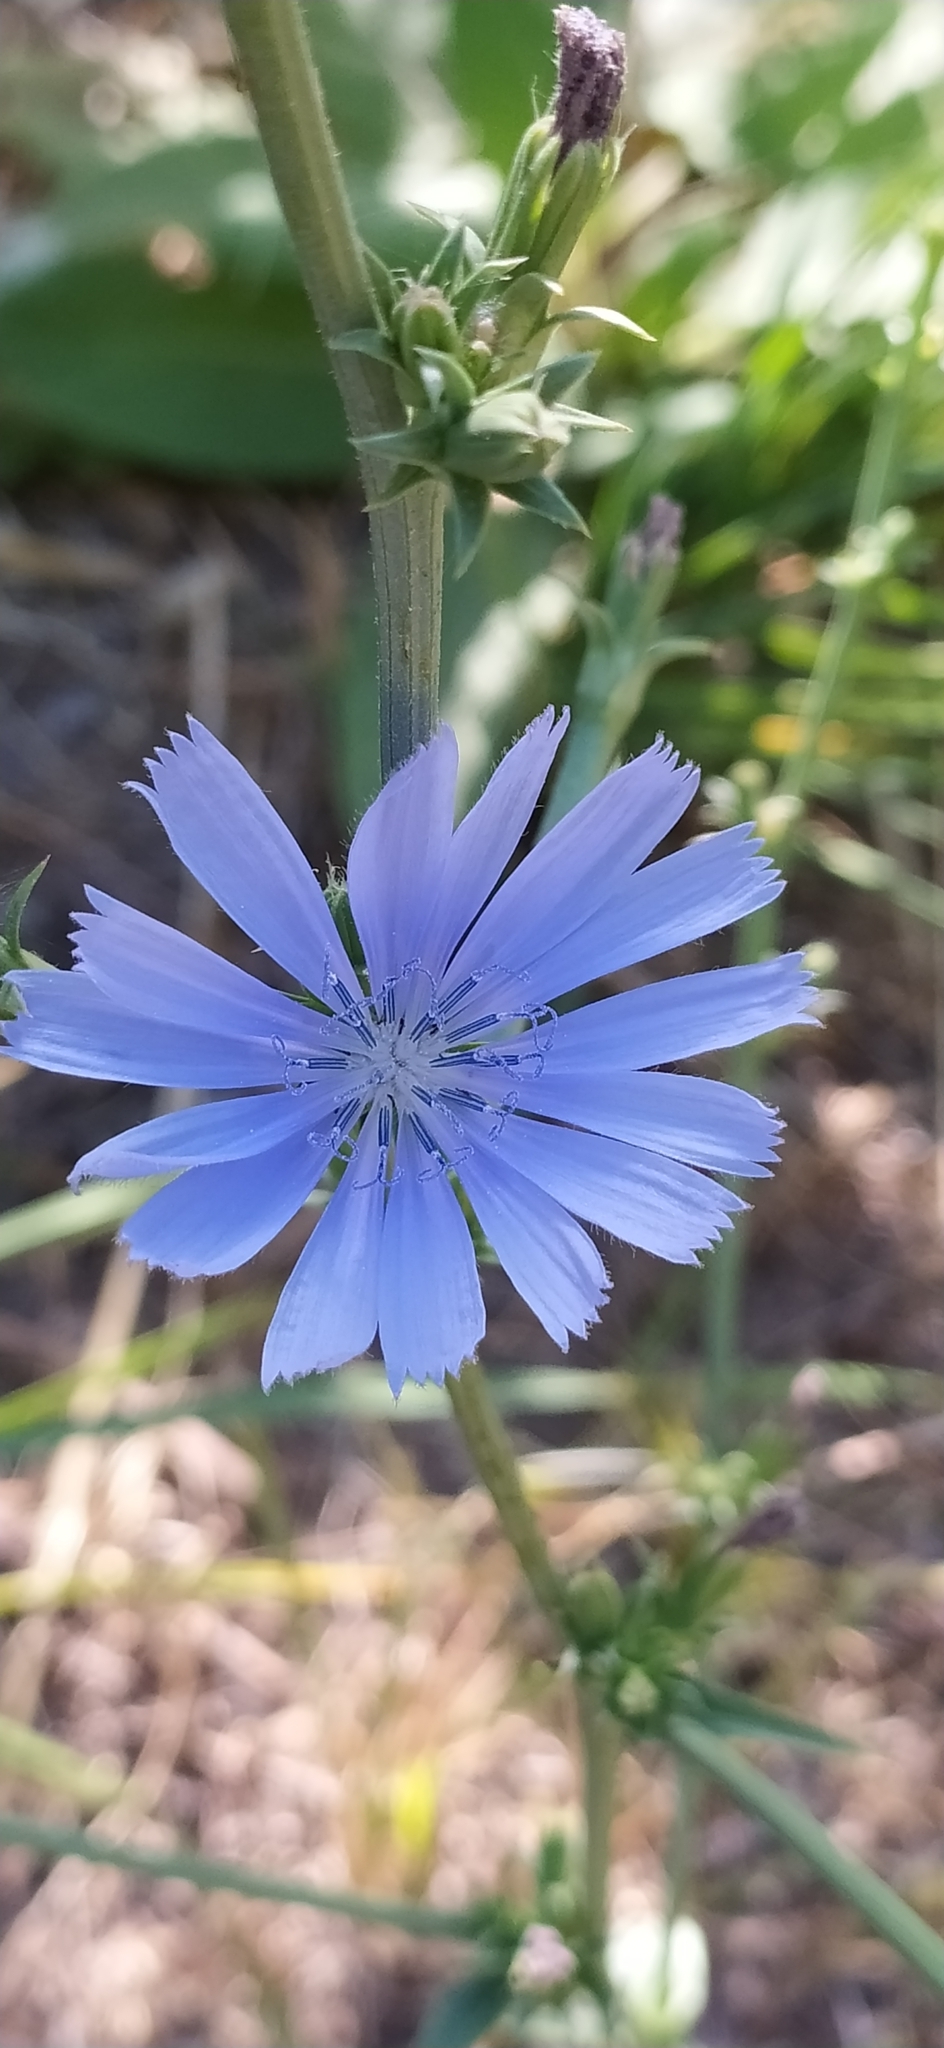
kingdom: Plantae
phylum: Tracheophyta
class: Magnoliopsida
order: Asterales
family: Asteraceae
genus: Cichorium
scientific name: Cichorium intybus
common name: Chicory
